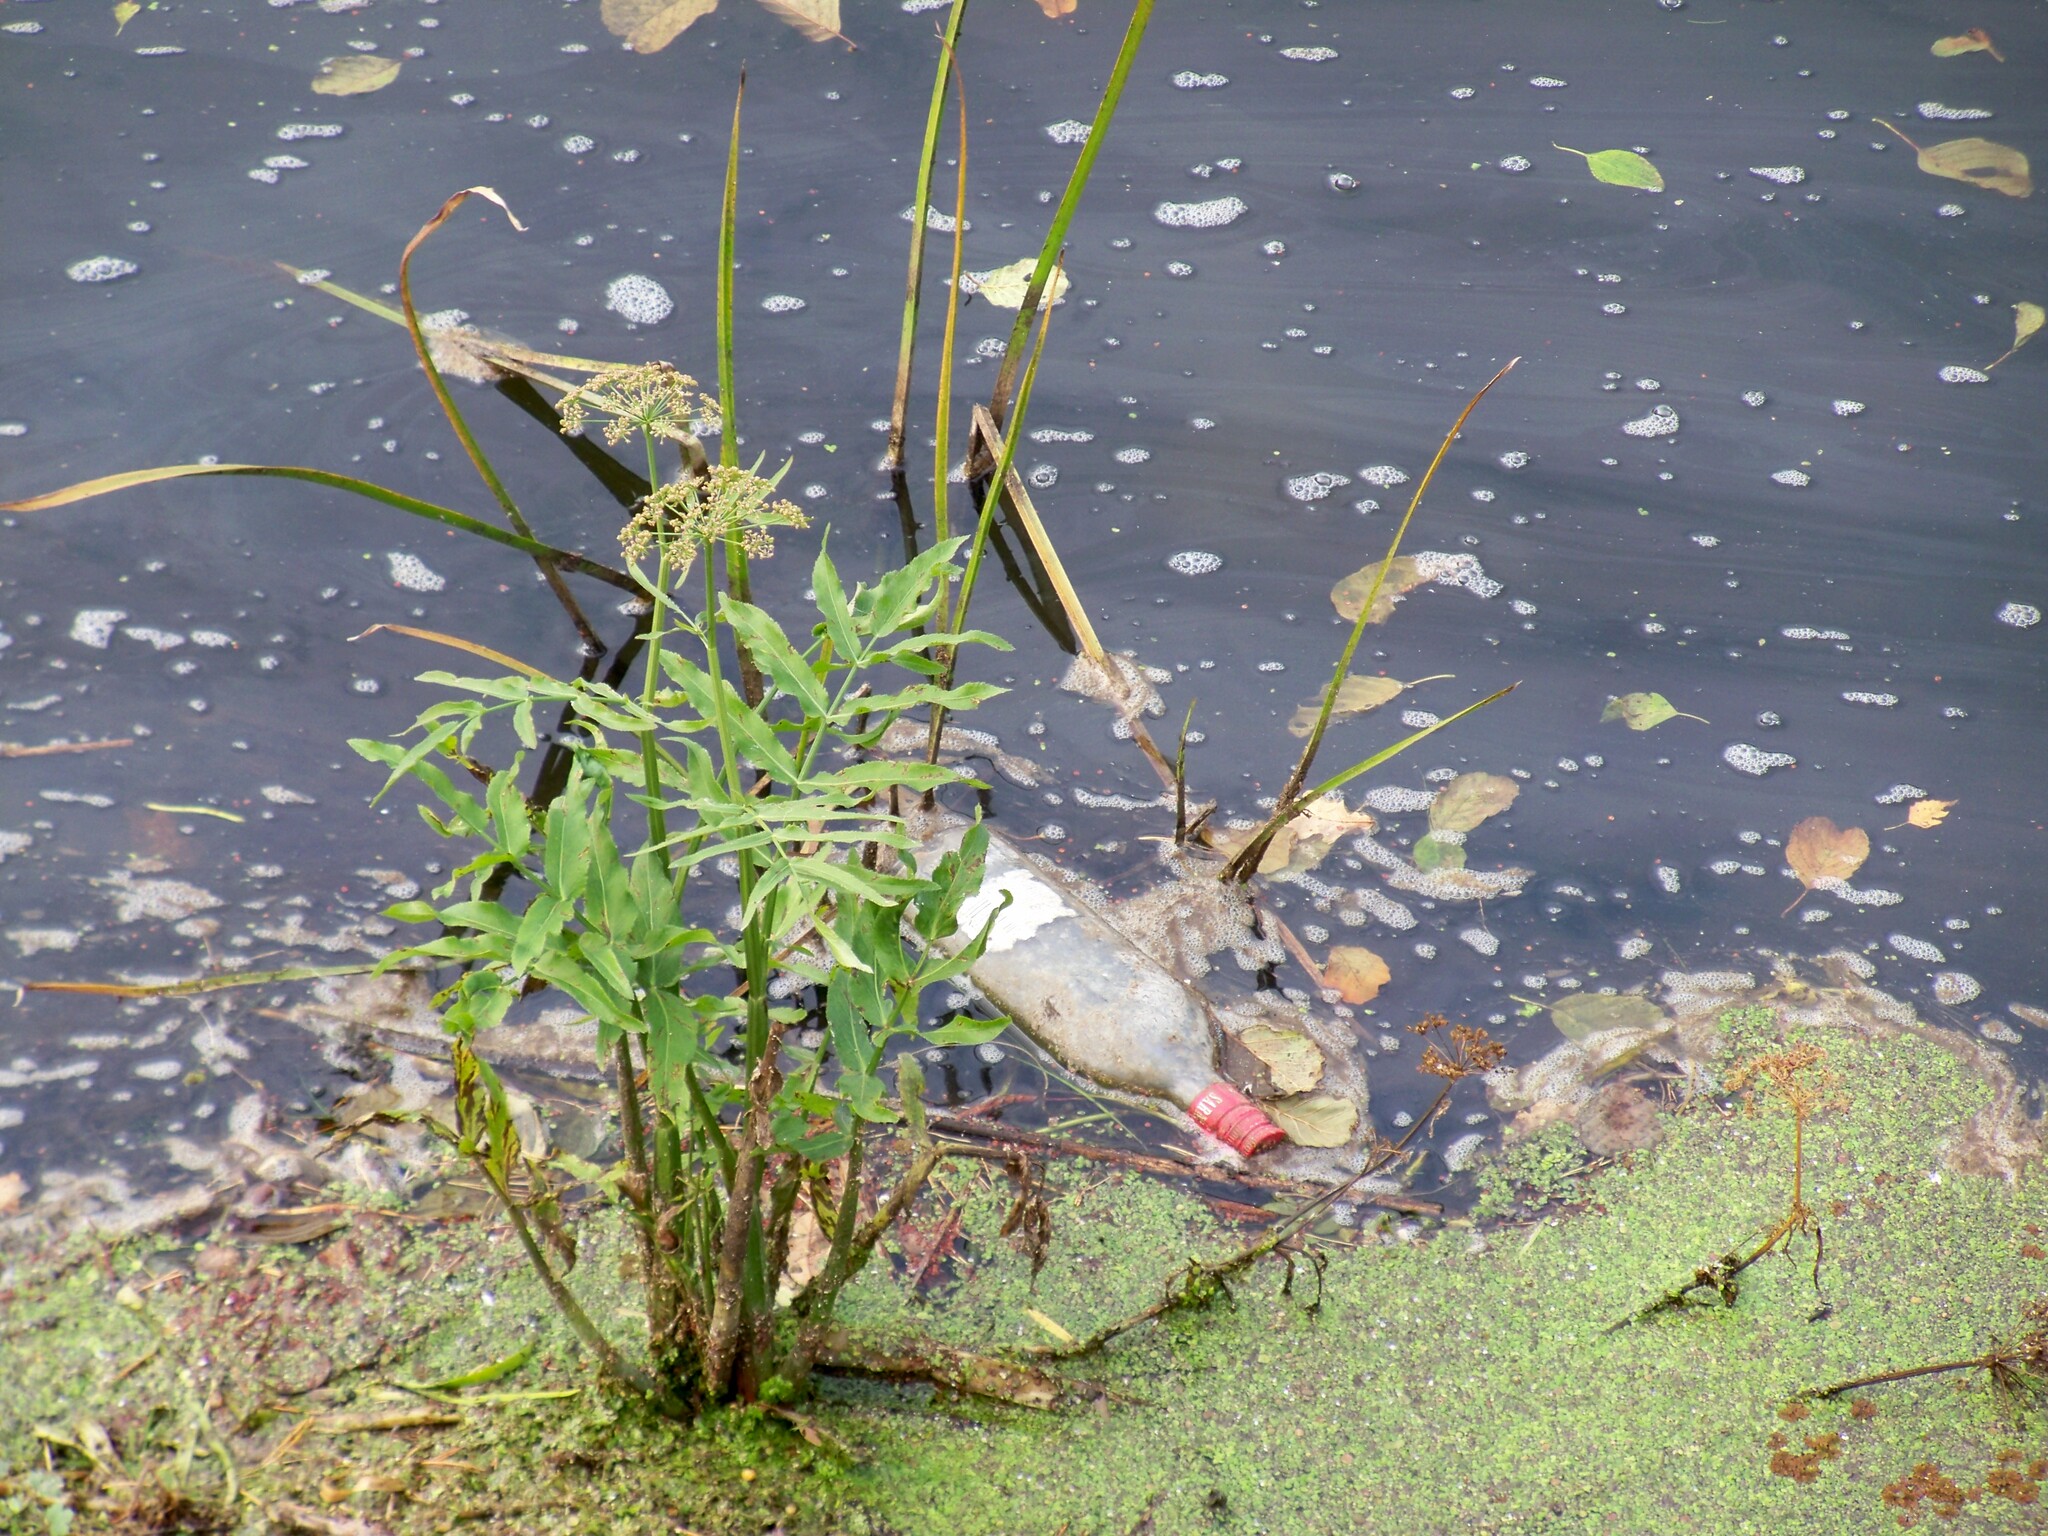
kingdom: Plantae
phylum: Tracheophyta
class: Magnoliopsida
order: Apiales
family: Apiaceae
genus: Sium
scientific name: Sium latifolium
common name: Greater water-parsnip
